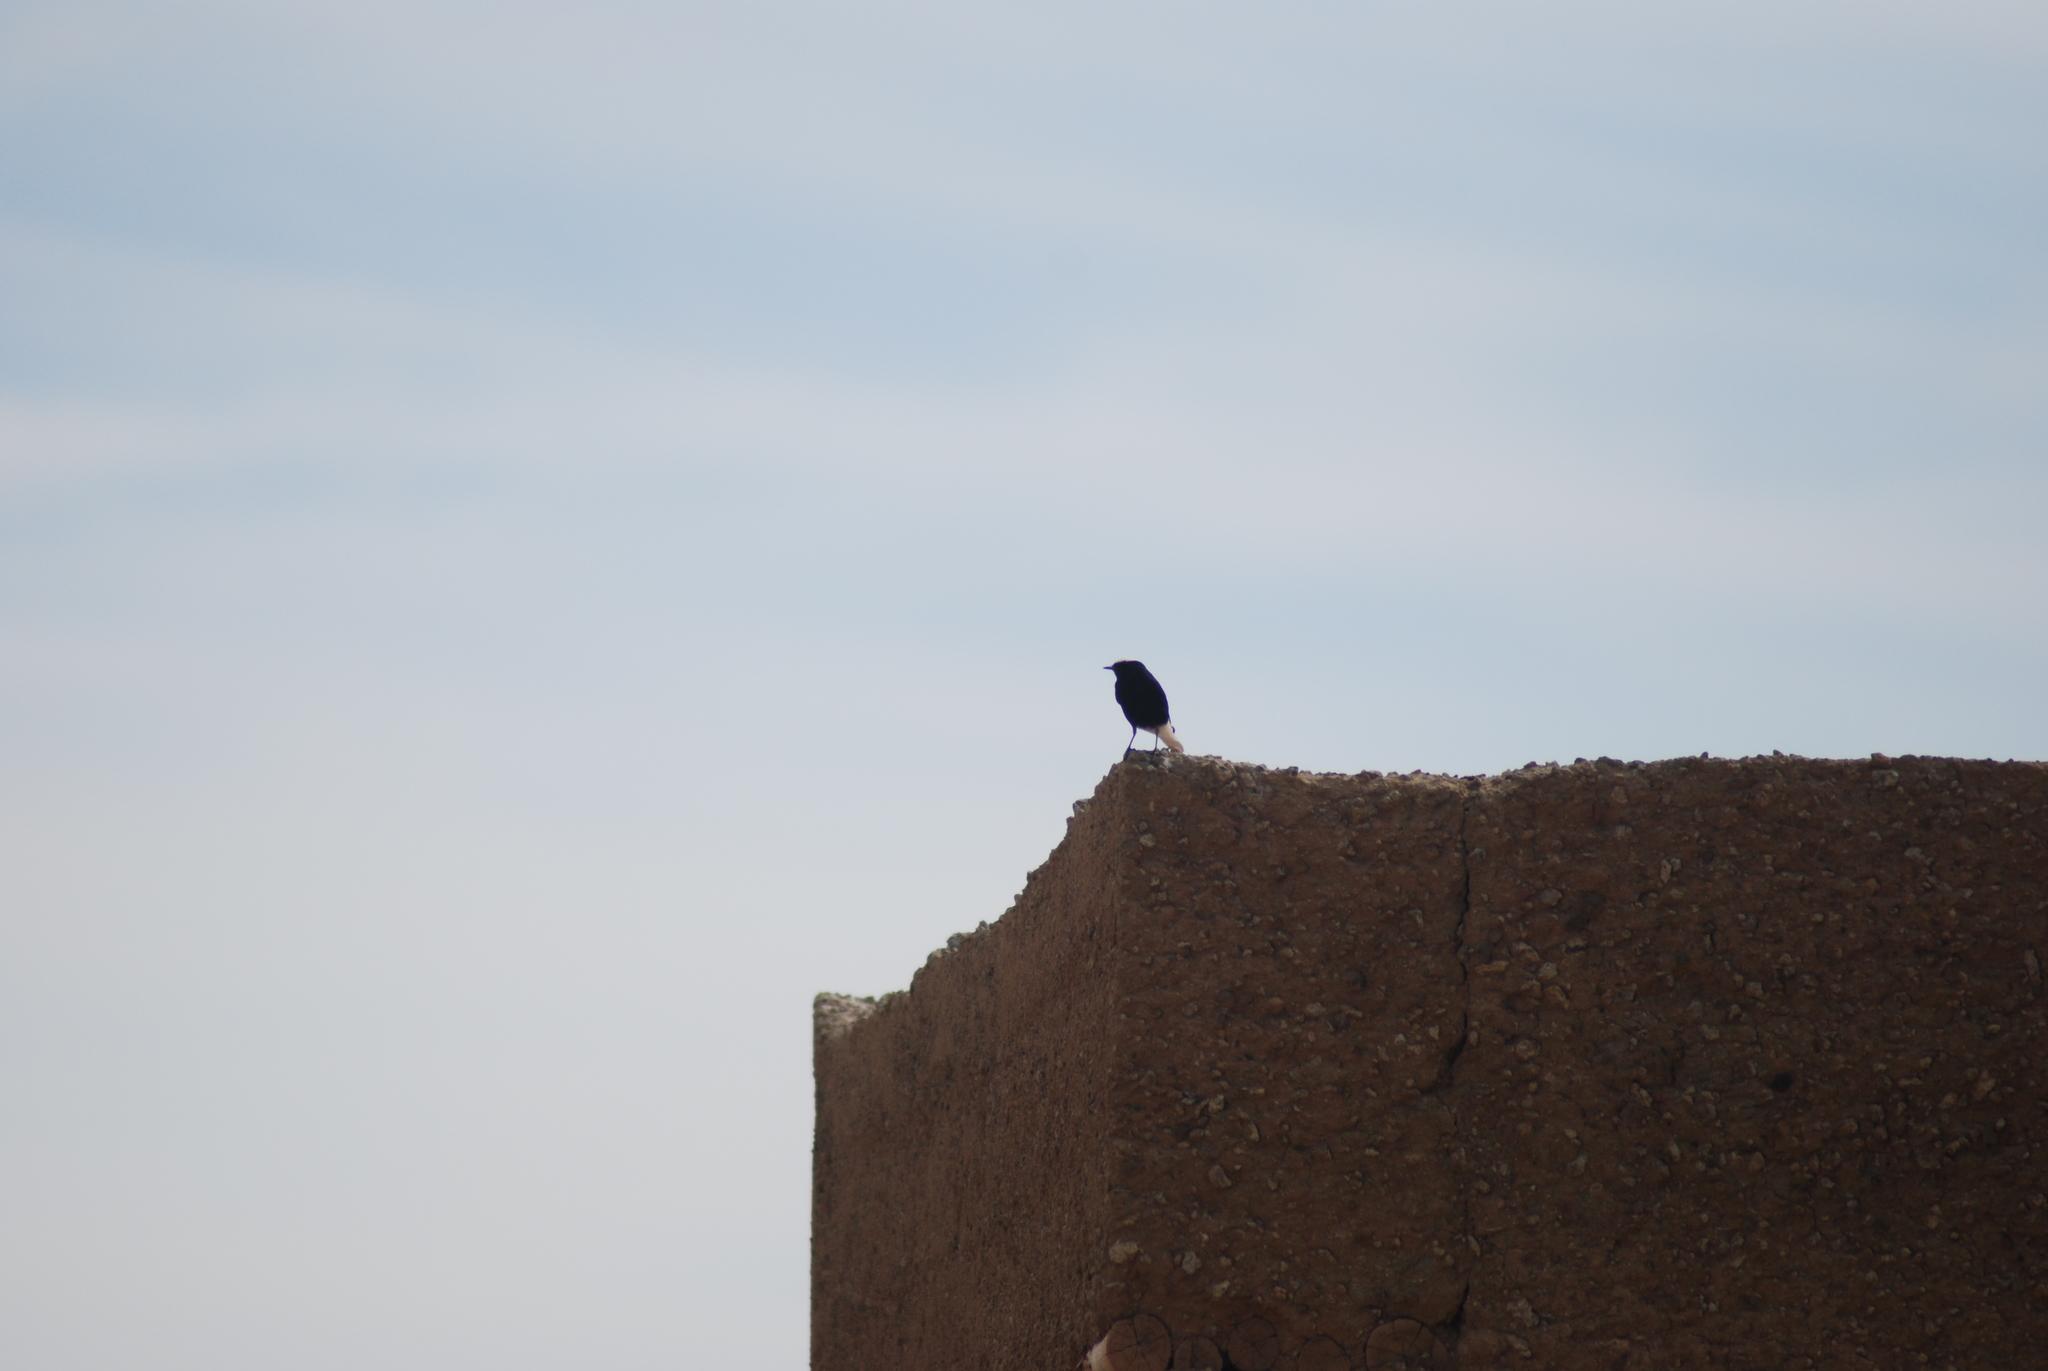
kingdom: Animalia
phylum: Chordata
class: Aves
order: Passeriformes
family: Muscicapidae
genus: Oenanthe
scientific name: Oenanthe leucopyga
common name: White-crowned wheatear
